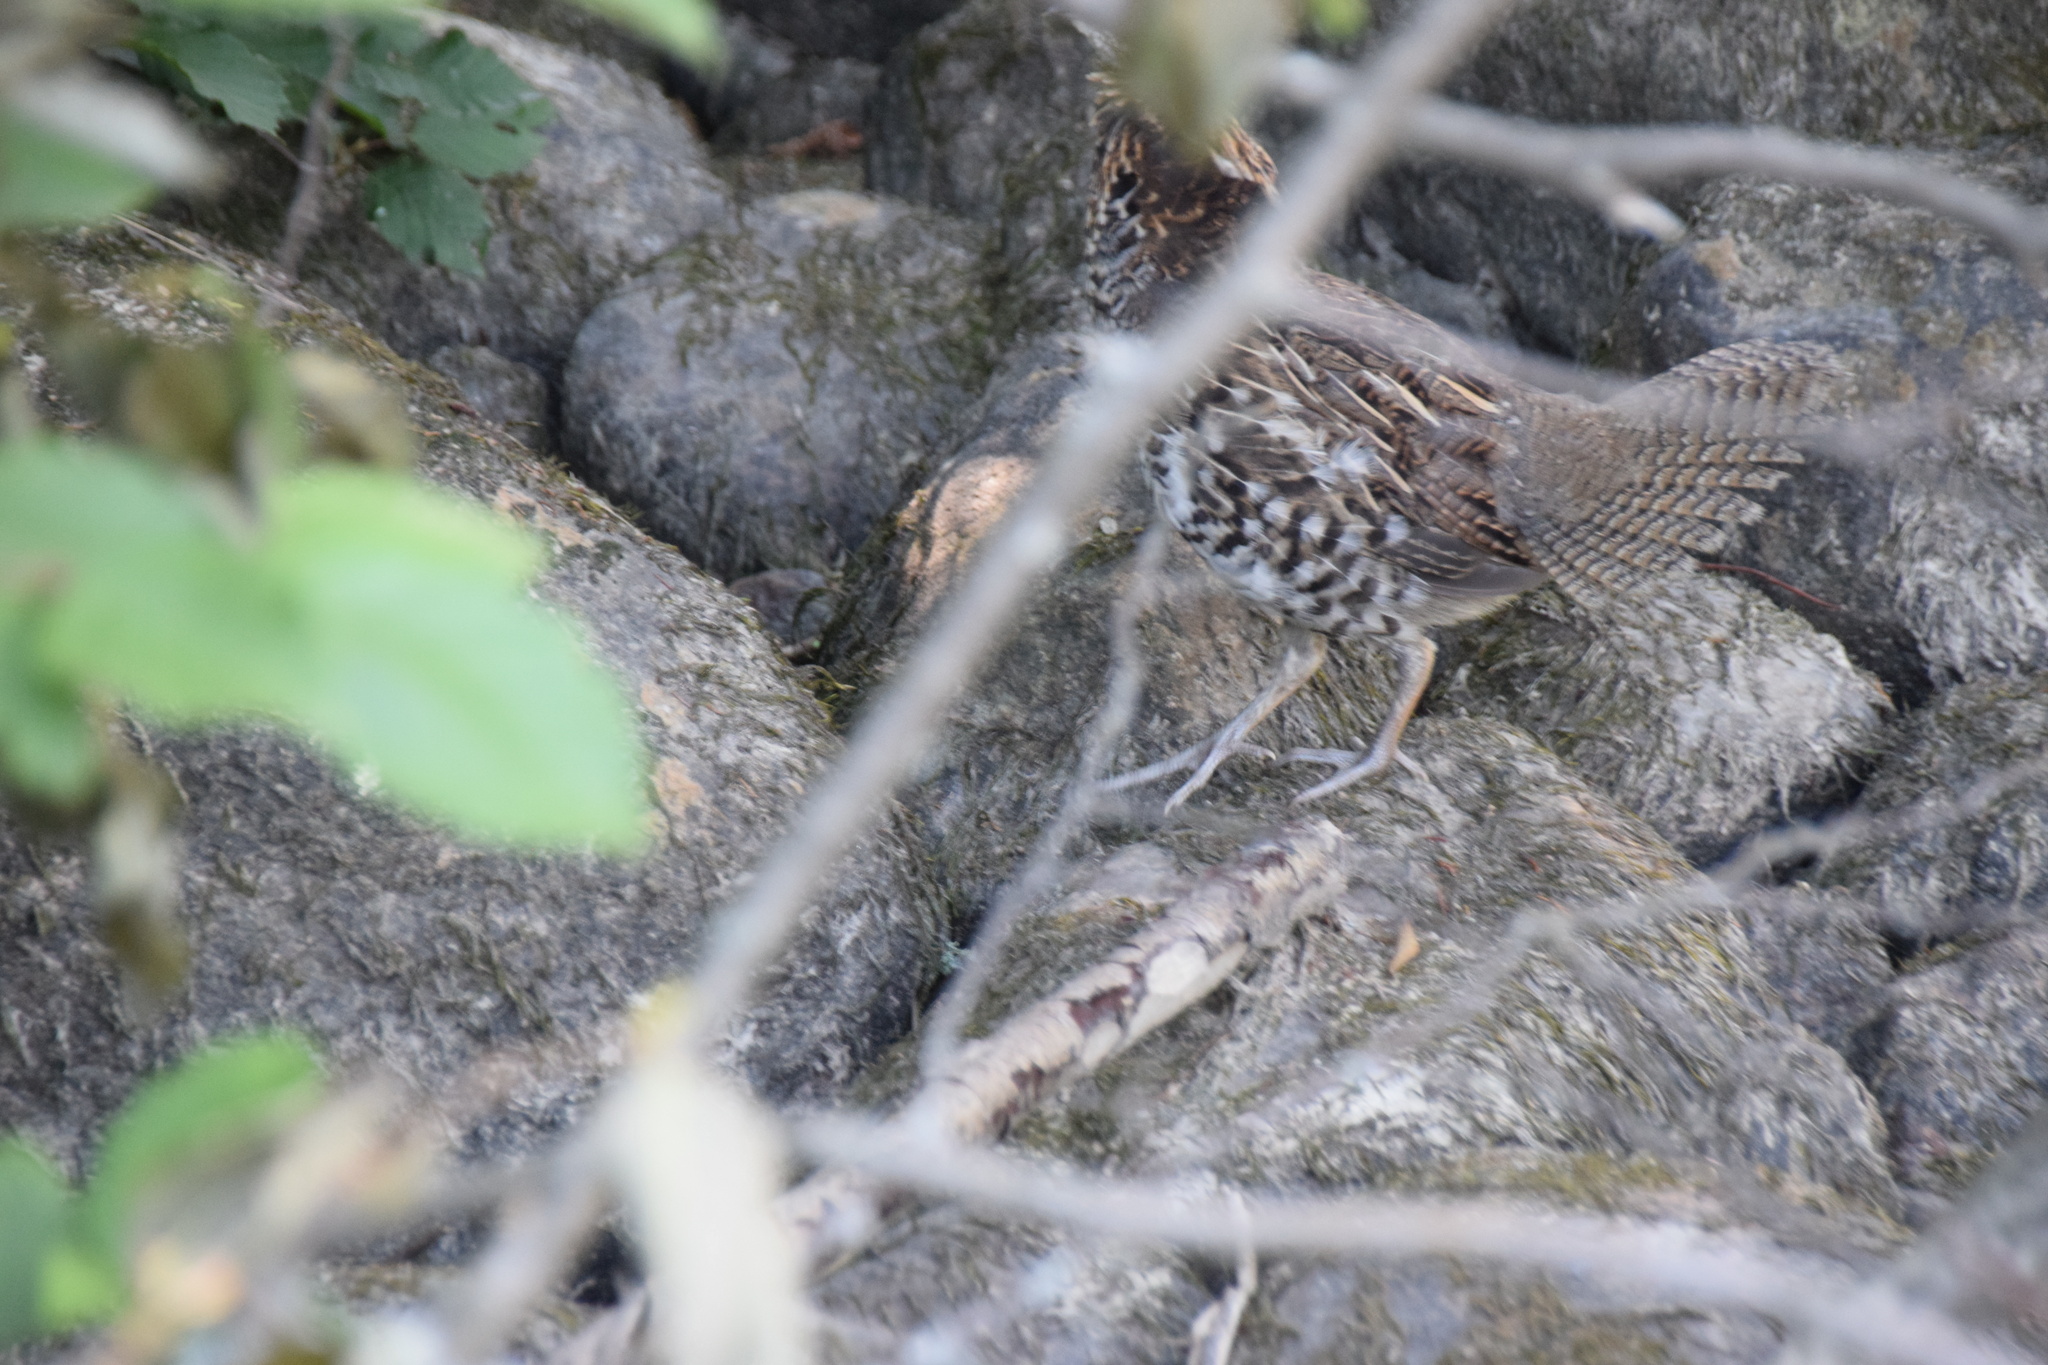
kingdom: Animalia
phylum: Chordata
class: Aves
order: Galliformes
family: Phasianidae
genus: Bonasa
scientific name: Bonasa umbellus
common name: Ruffed grouse
